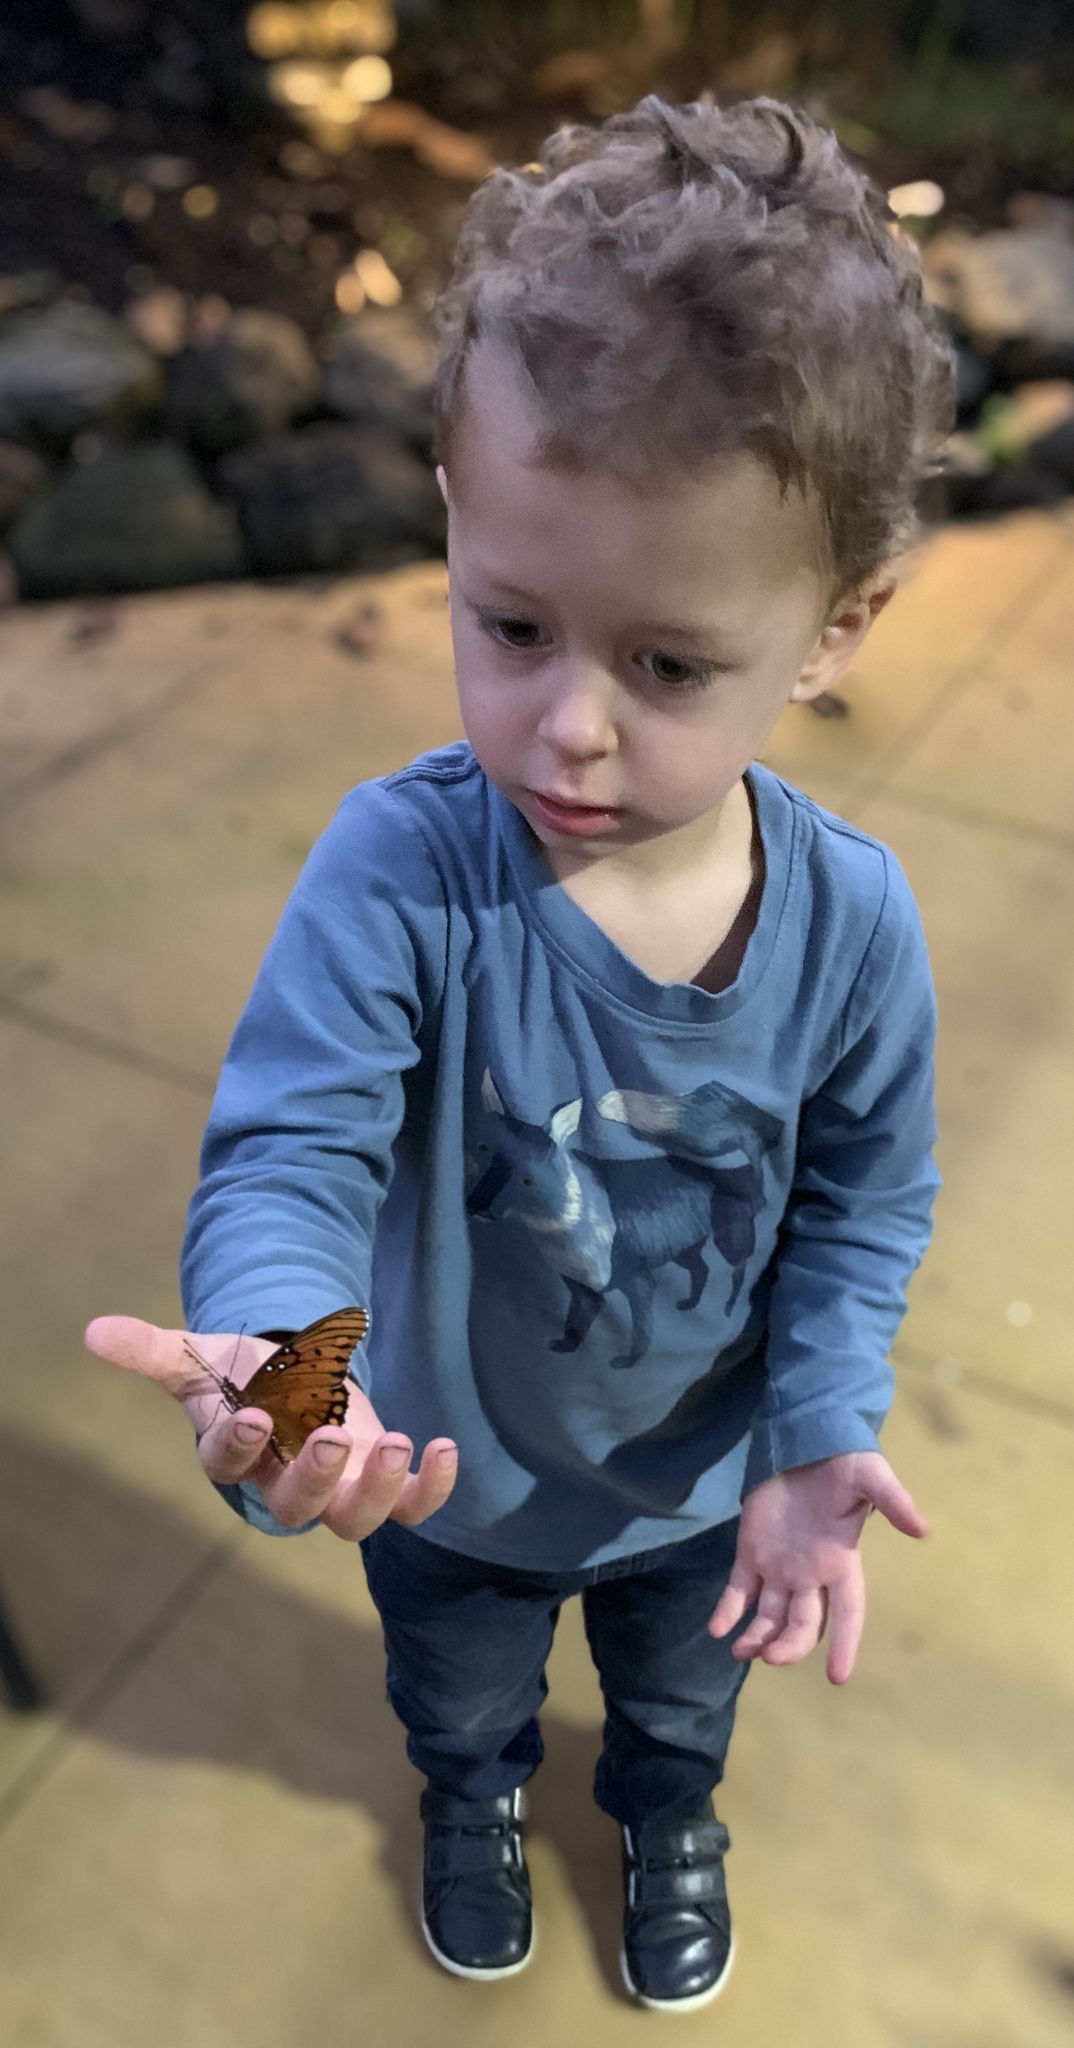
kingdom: Animalia
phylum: Arthropoda
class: Insecta
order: Lepidoptera
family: Nymphalidae
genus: Dione
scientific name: Dione vanillae
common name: Gulf fritillary
